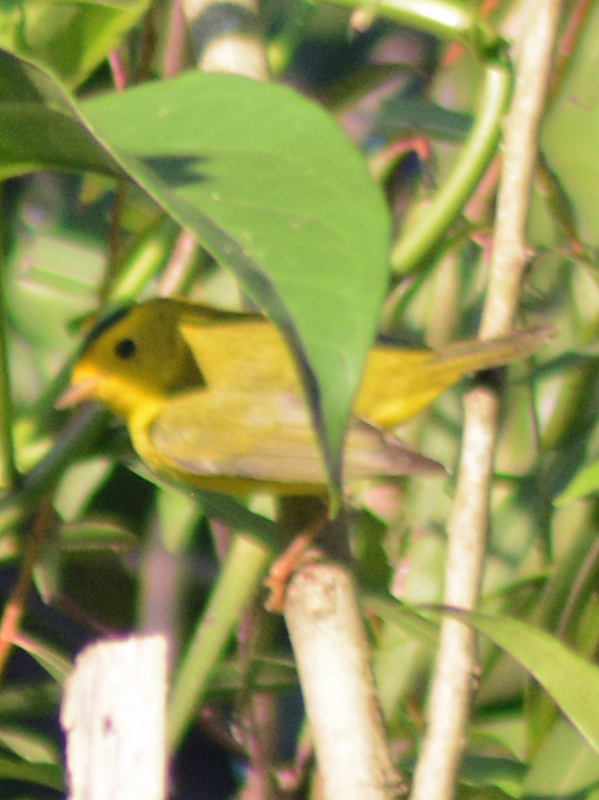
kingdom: Animalia
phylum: Chordata
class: Aves
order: Passeriformes
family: Parulidae
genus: Cardellina
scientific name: Cardellina pusilla
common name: Wilson's warbler
